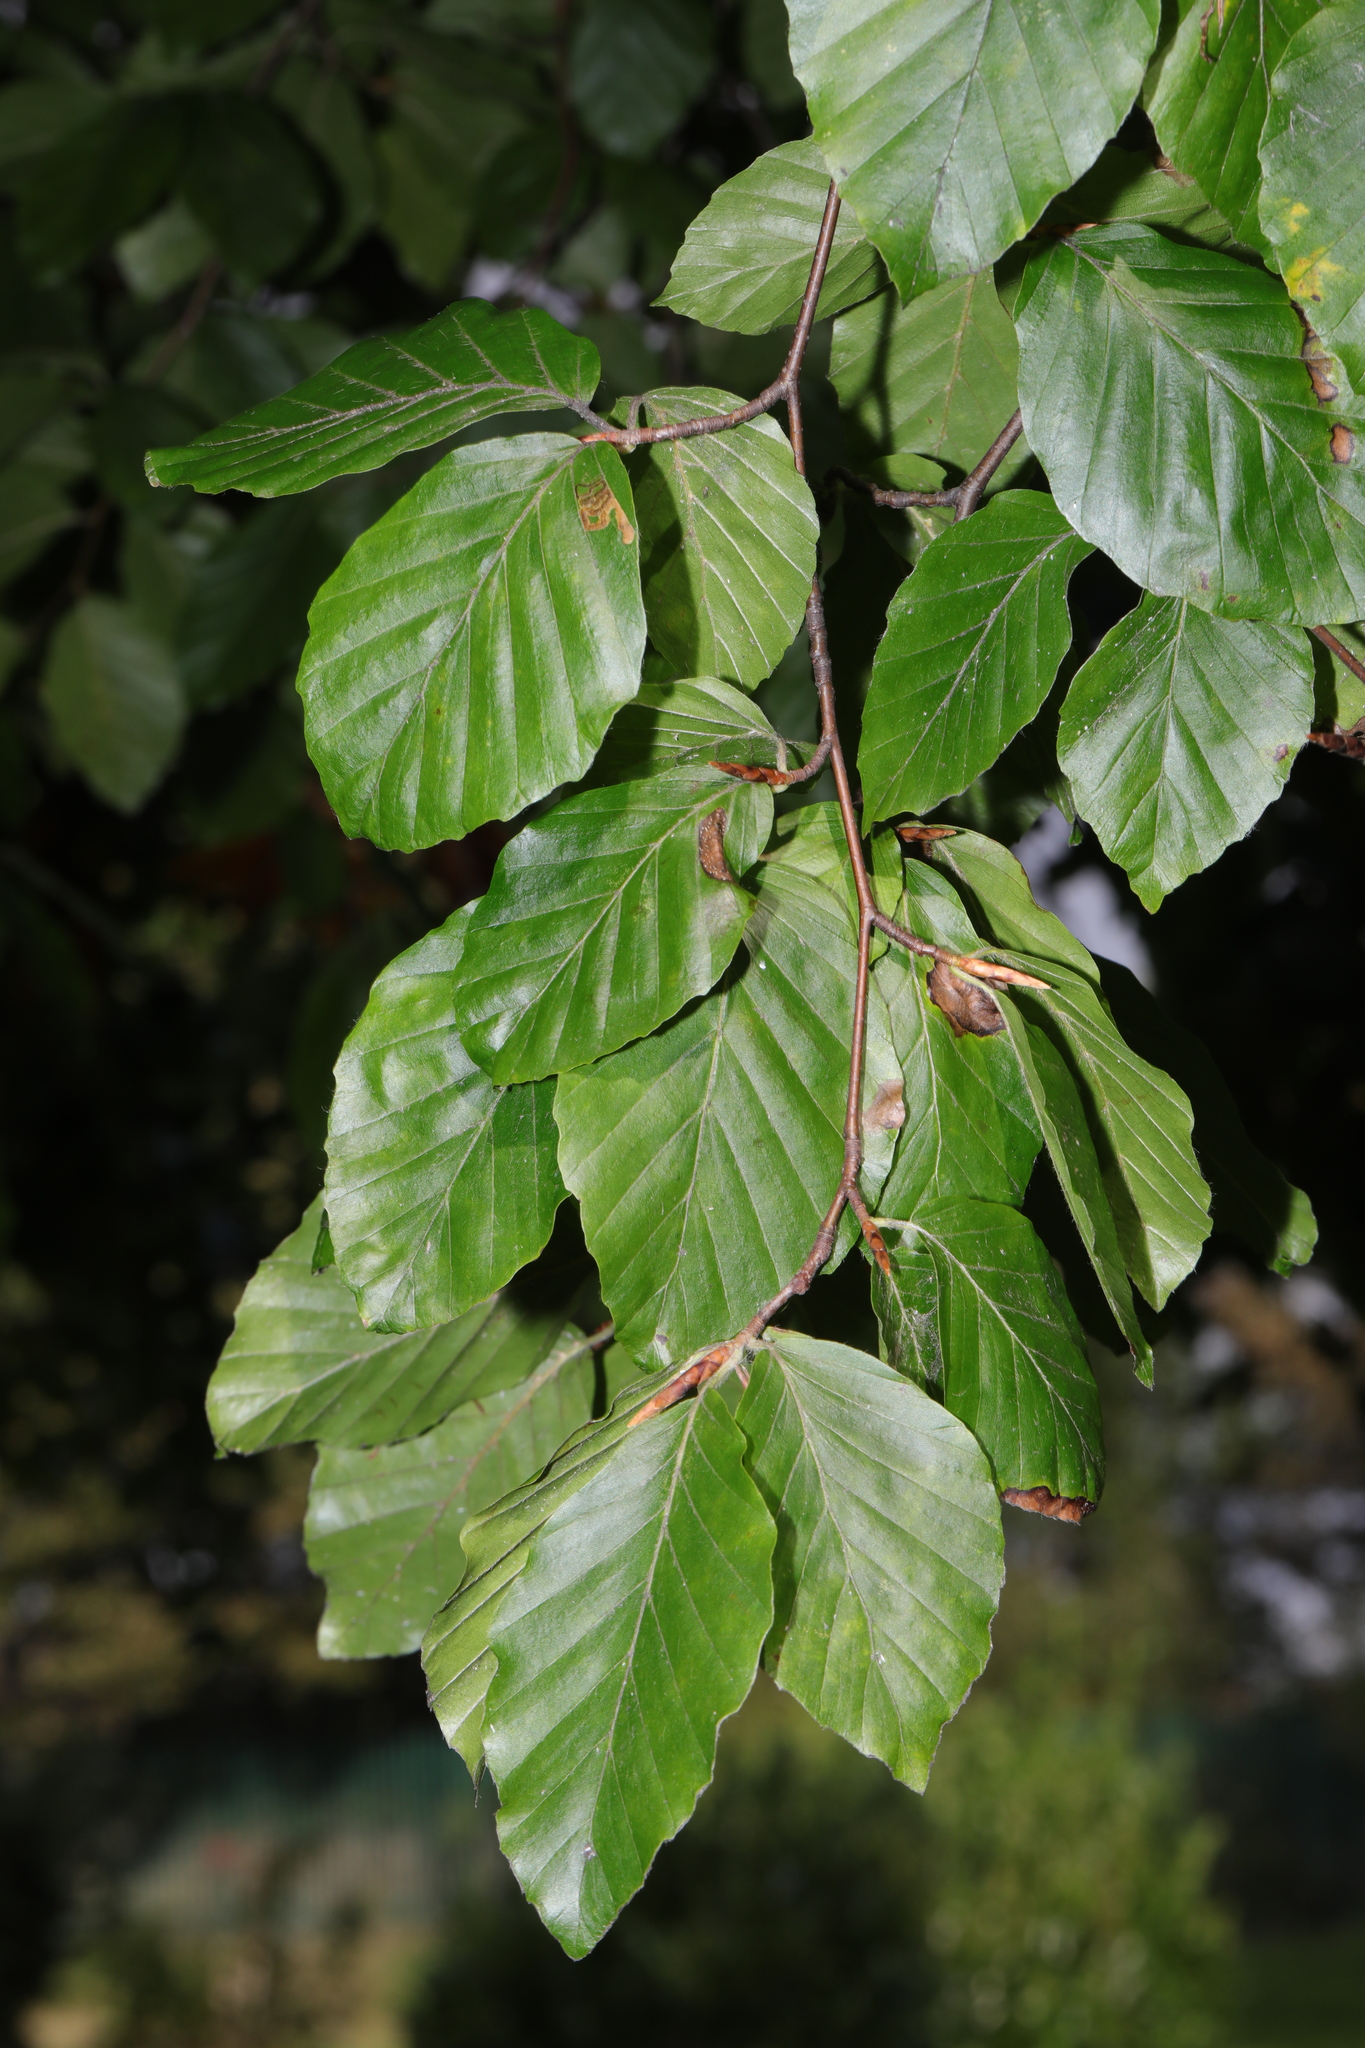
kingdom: Plantae
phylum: Tracheophyta
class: Magnoliopsida
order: Fagales
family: Fagaceae
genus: Fagus
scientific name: Fagus sylvatica
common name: Beech
